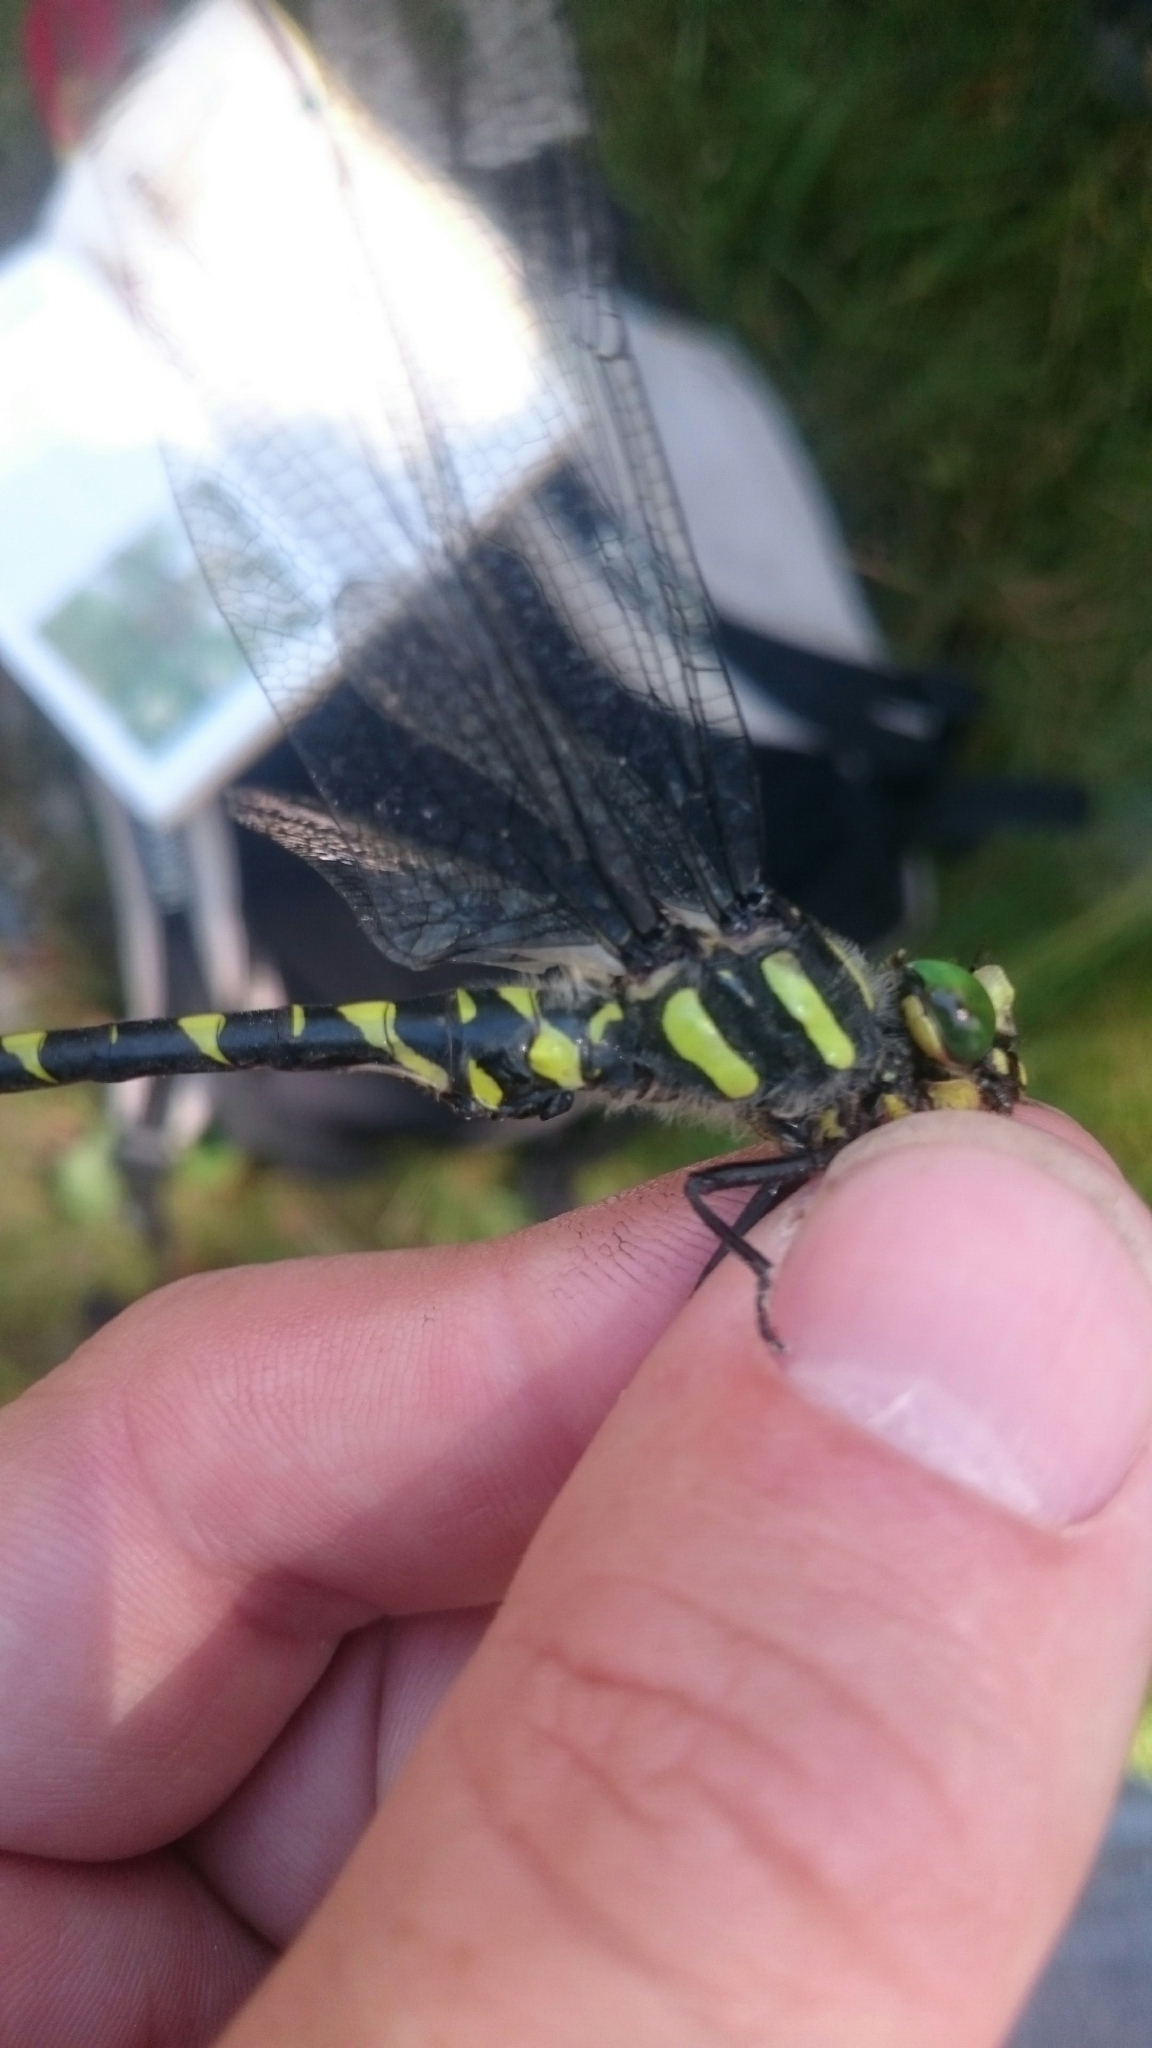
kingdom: Animalia
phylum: Arthropoda
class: Insecta
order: Odonata
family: Cordulegastridae
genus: Cordulegaster
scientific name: Cordulegaster bidentata
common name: Sombre goldenring
